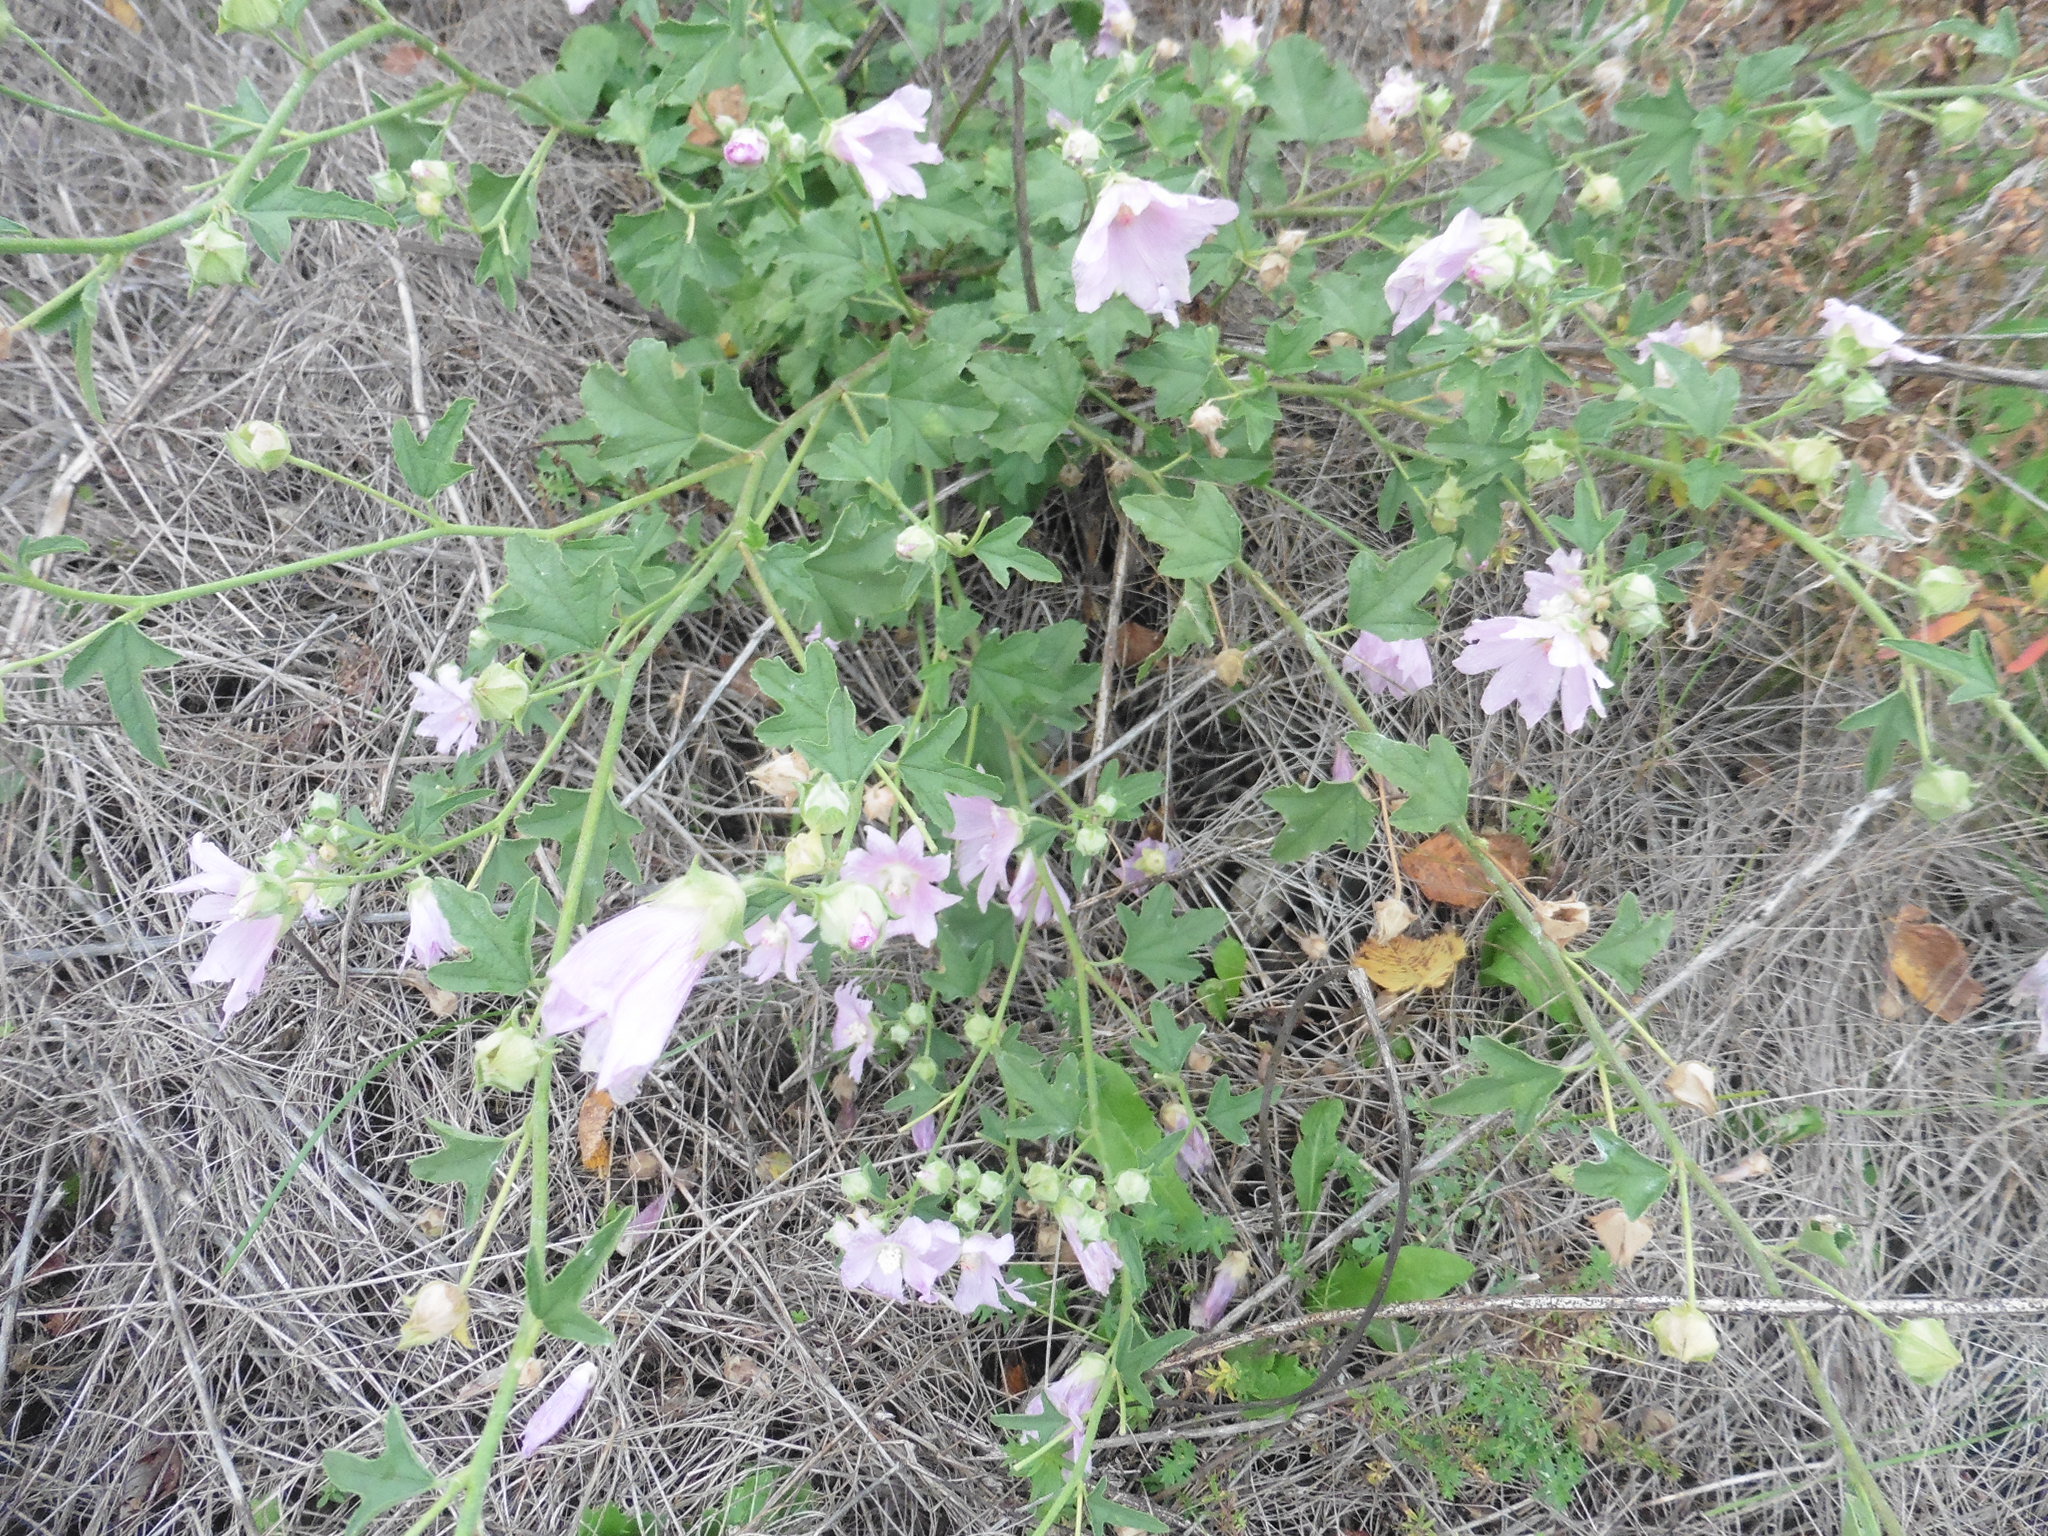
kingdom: Plantae
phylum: Tracheophyta
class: Magnoliopsida
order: Malvales
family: Malvaceae
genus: Malva
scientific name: Malva thuringiaca
